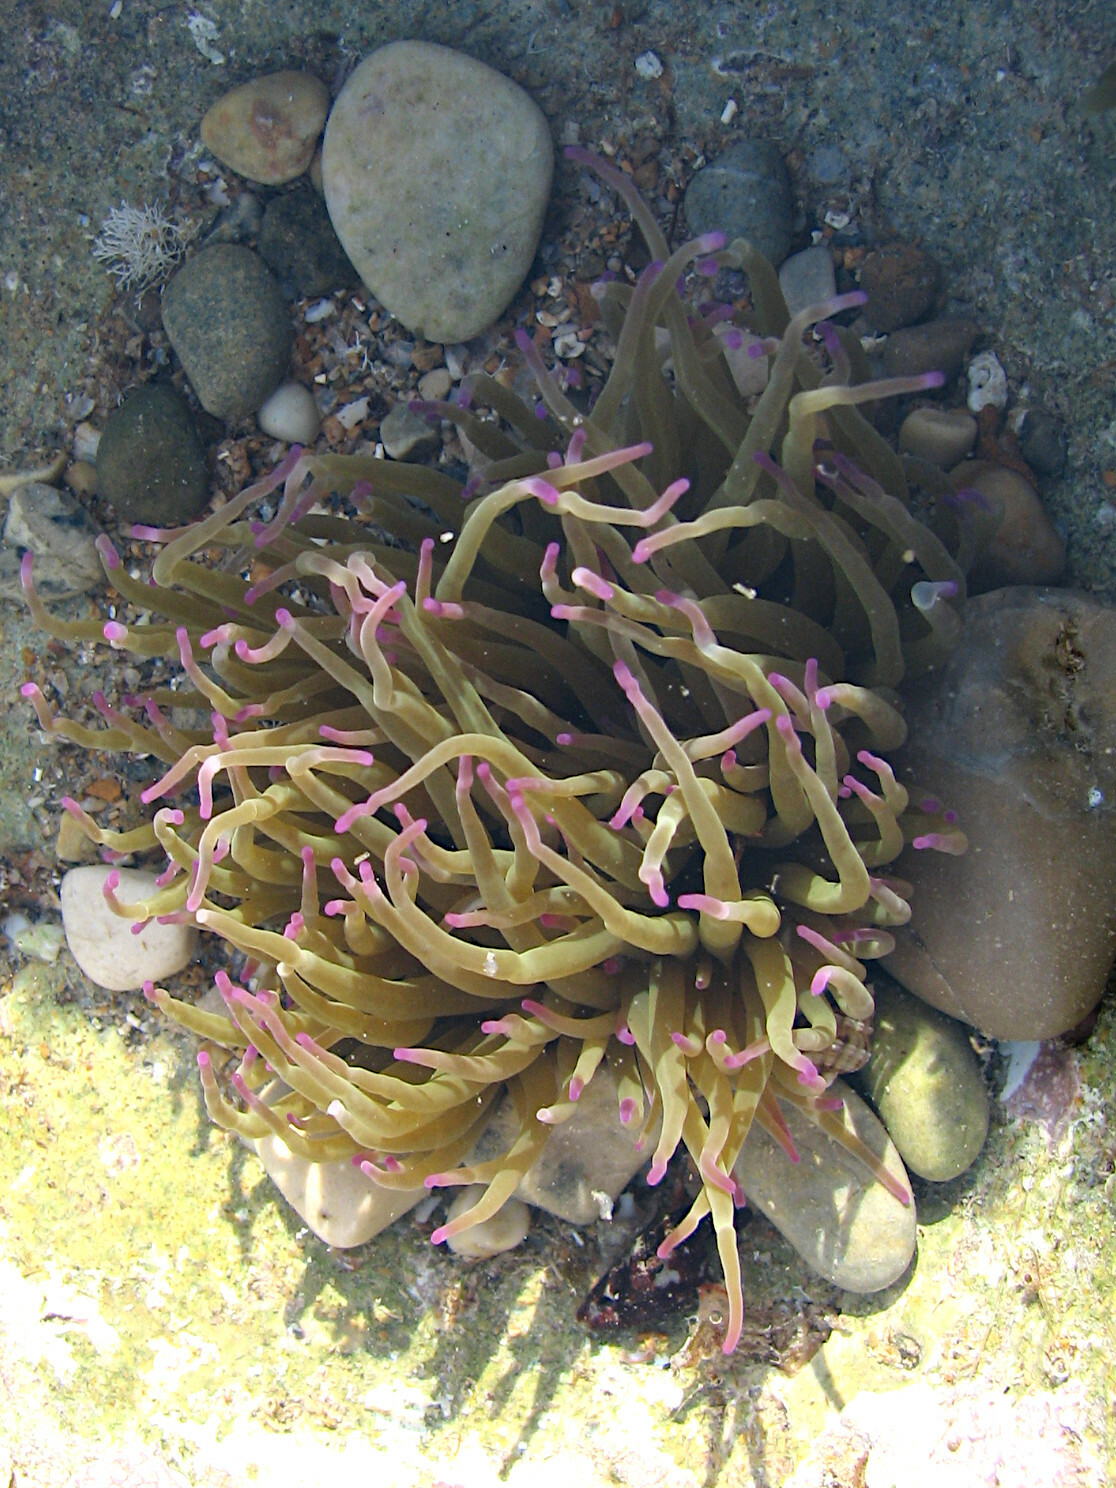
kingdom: Animalia
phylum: Cnidaria
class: Anthozoa
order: Actiniaria
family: Actiniidae
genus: Anemonia
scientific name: Anemonia viridis
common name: Snakelocks anemone
